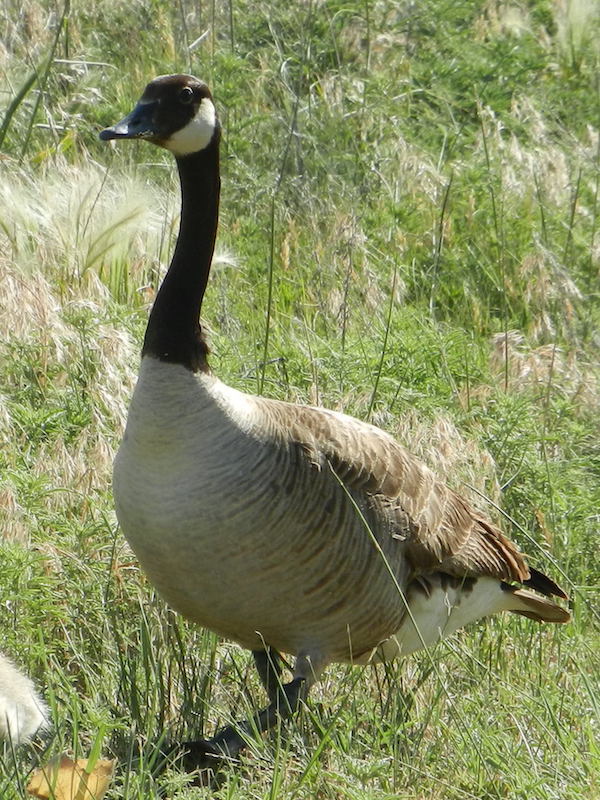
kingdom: Animalia
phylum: Chordata
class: Aves
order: Anseriformes
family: Anatidae
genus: Branta
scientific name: Branta canadensis
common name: Canada goose
